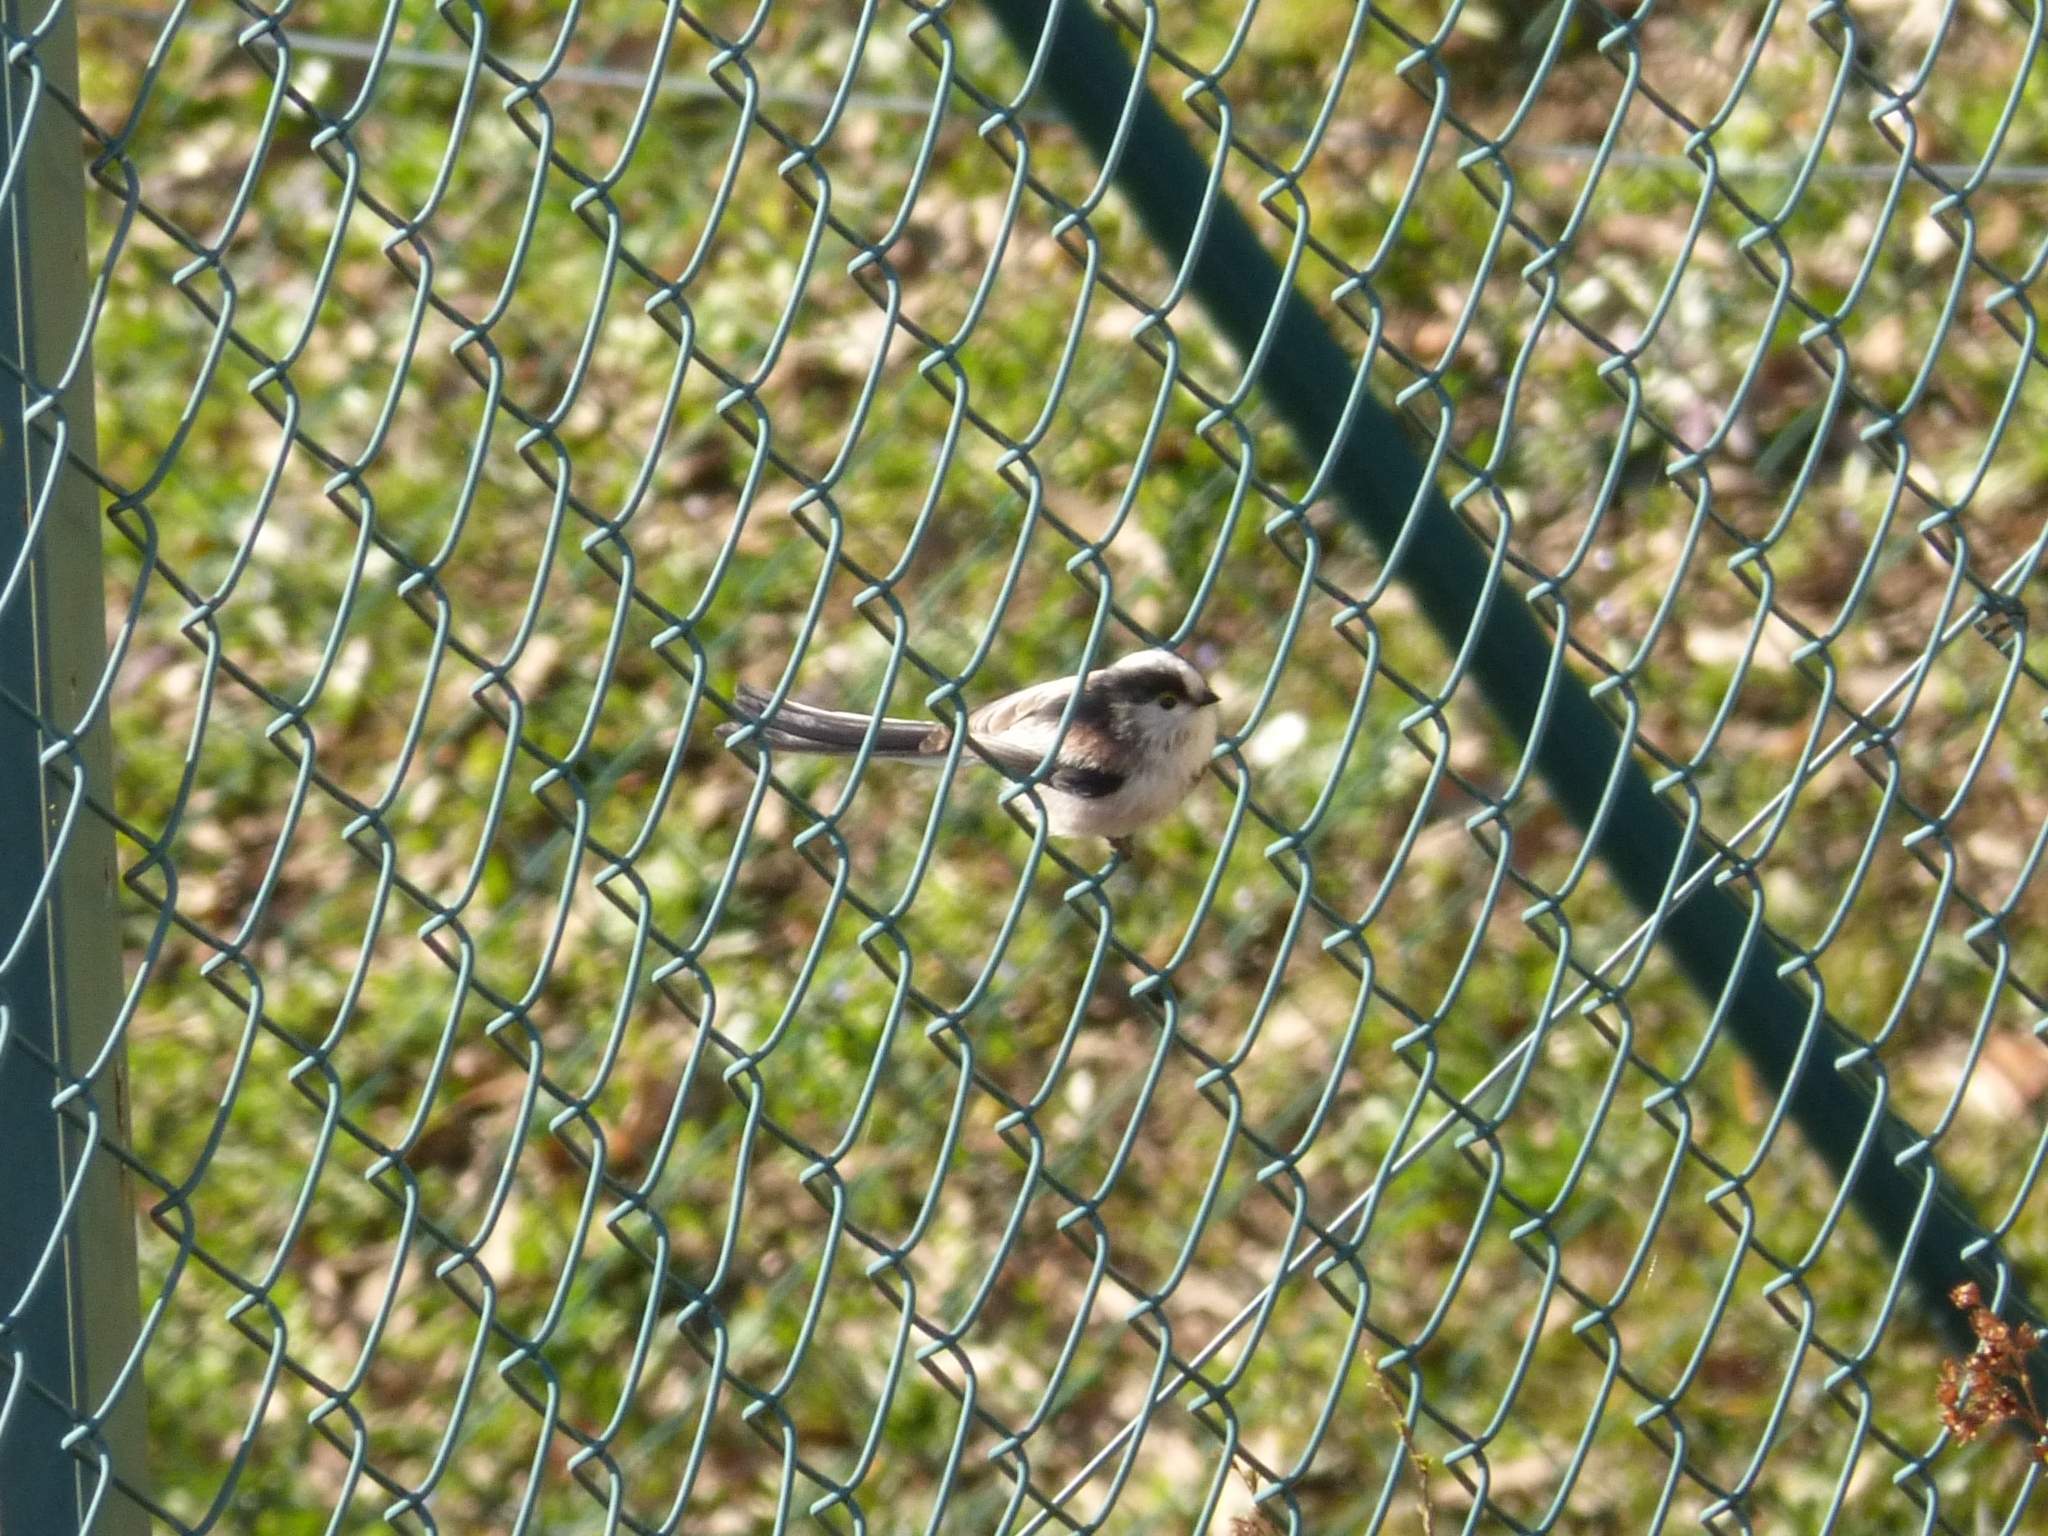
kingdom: Animalia
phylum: Chordata
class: Aves
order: Passeriformes
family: Aegithalidae
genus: Aegithalos
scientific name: Aegithalos caudatus
